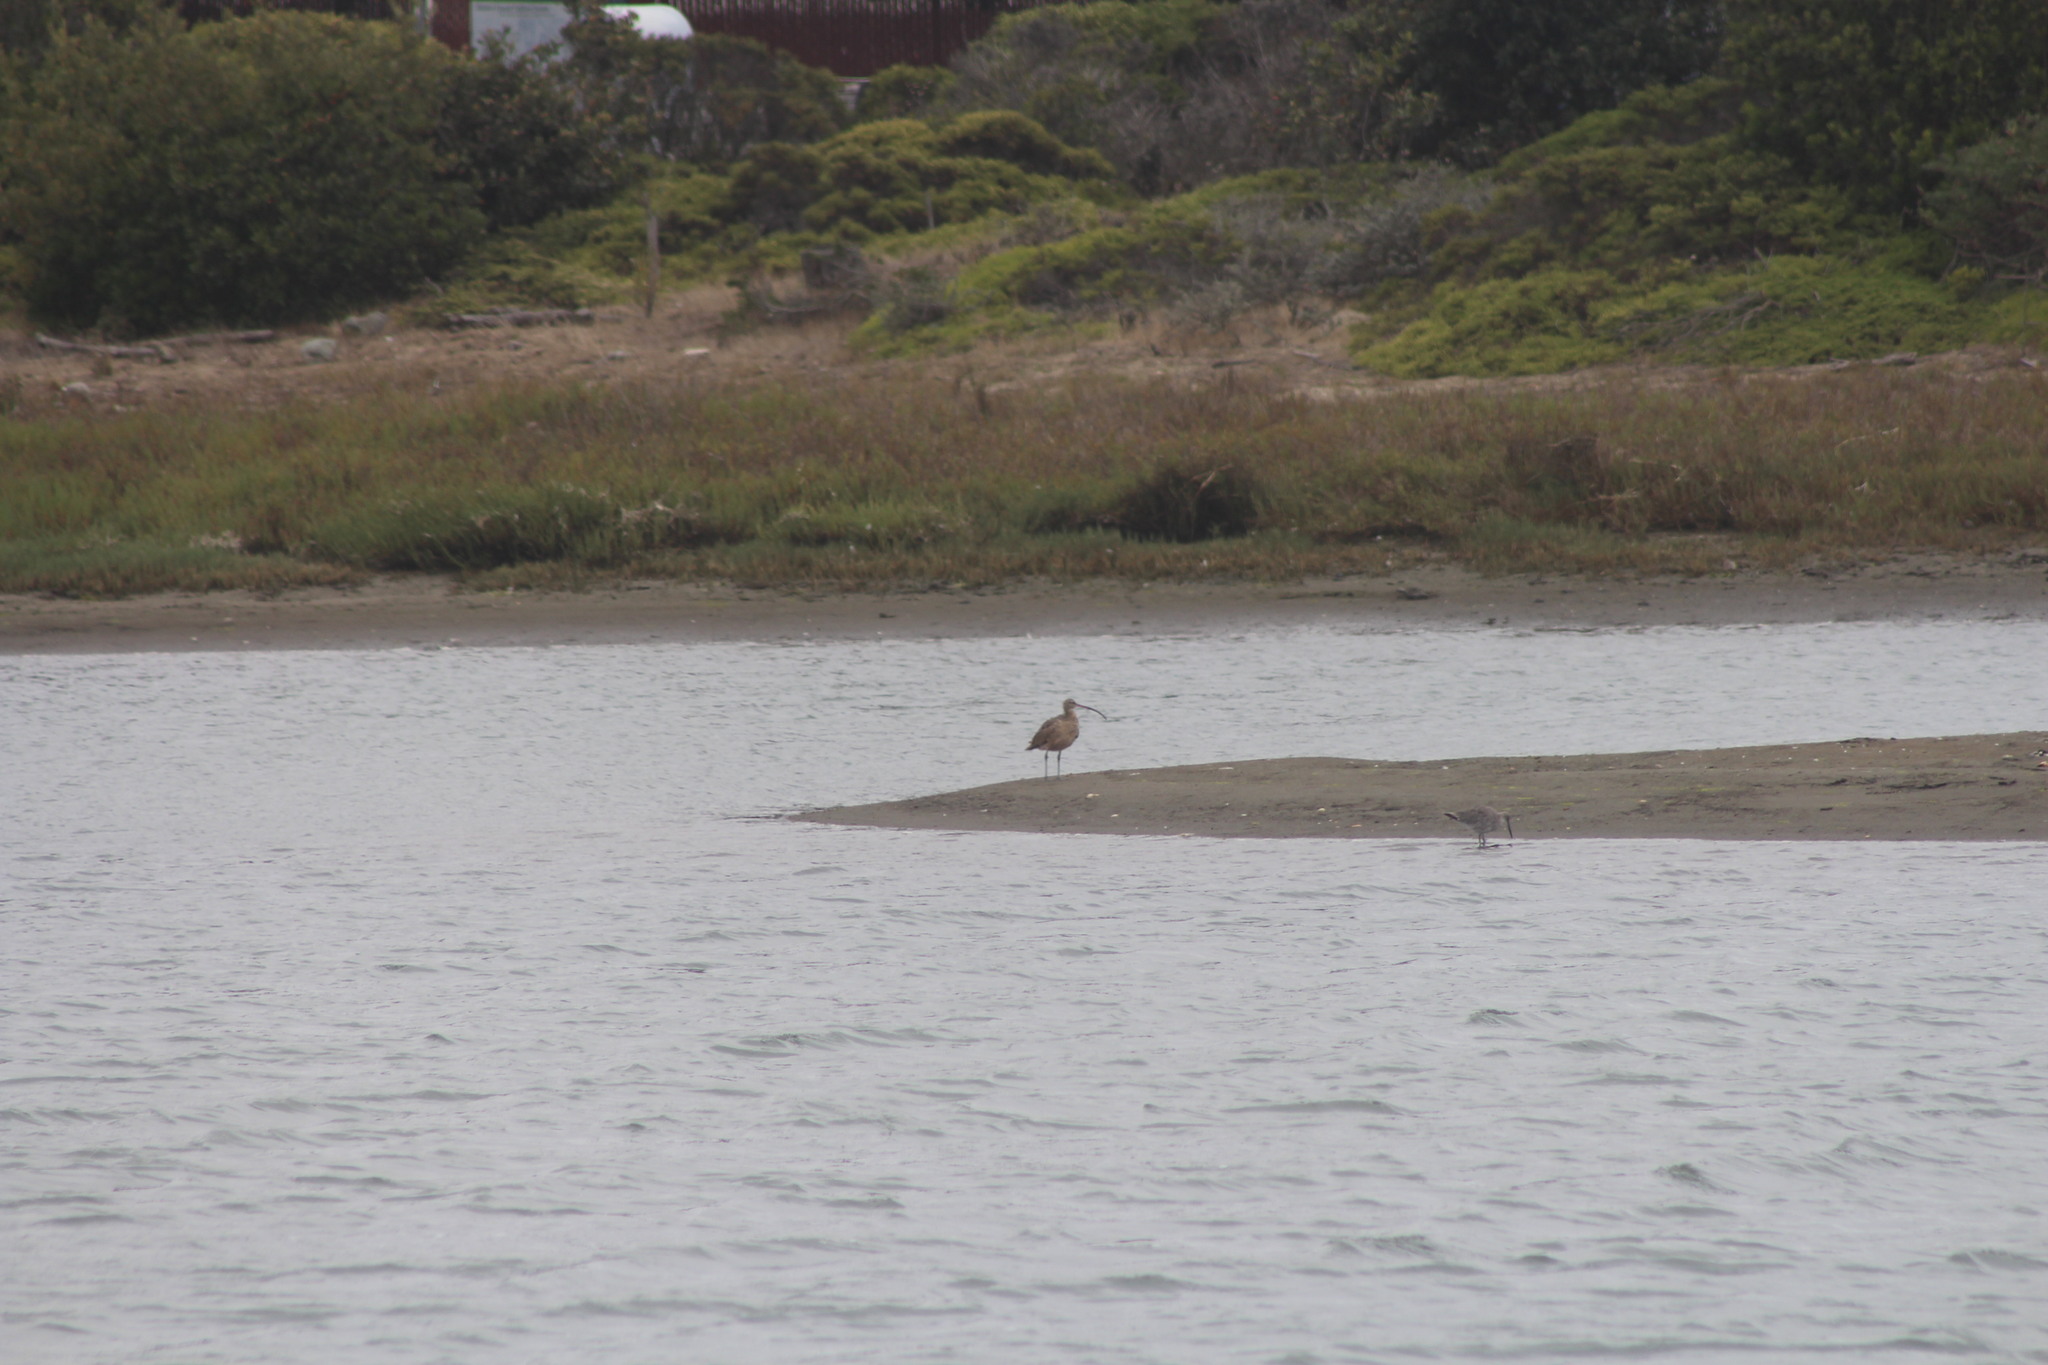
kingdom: Animalia
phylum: Chordata
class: Aves
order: Charadriiformes
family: Scolopacidae
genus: Numenius
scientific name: Numenius americanus
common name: Long-billed curlew
